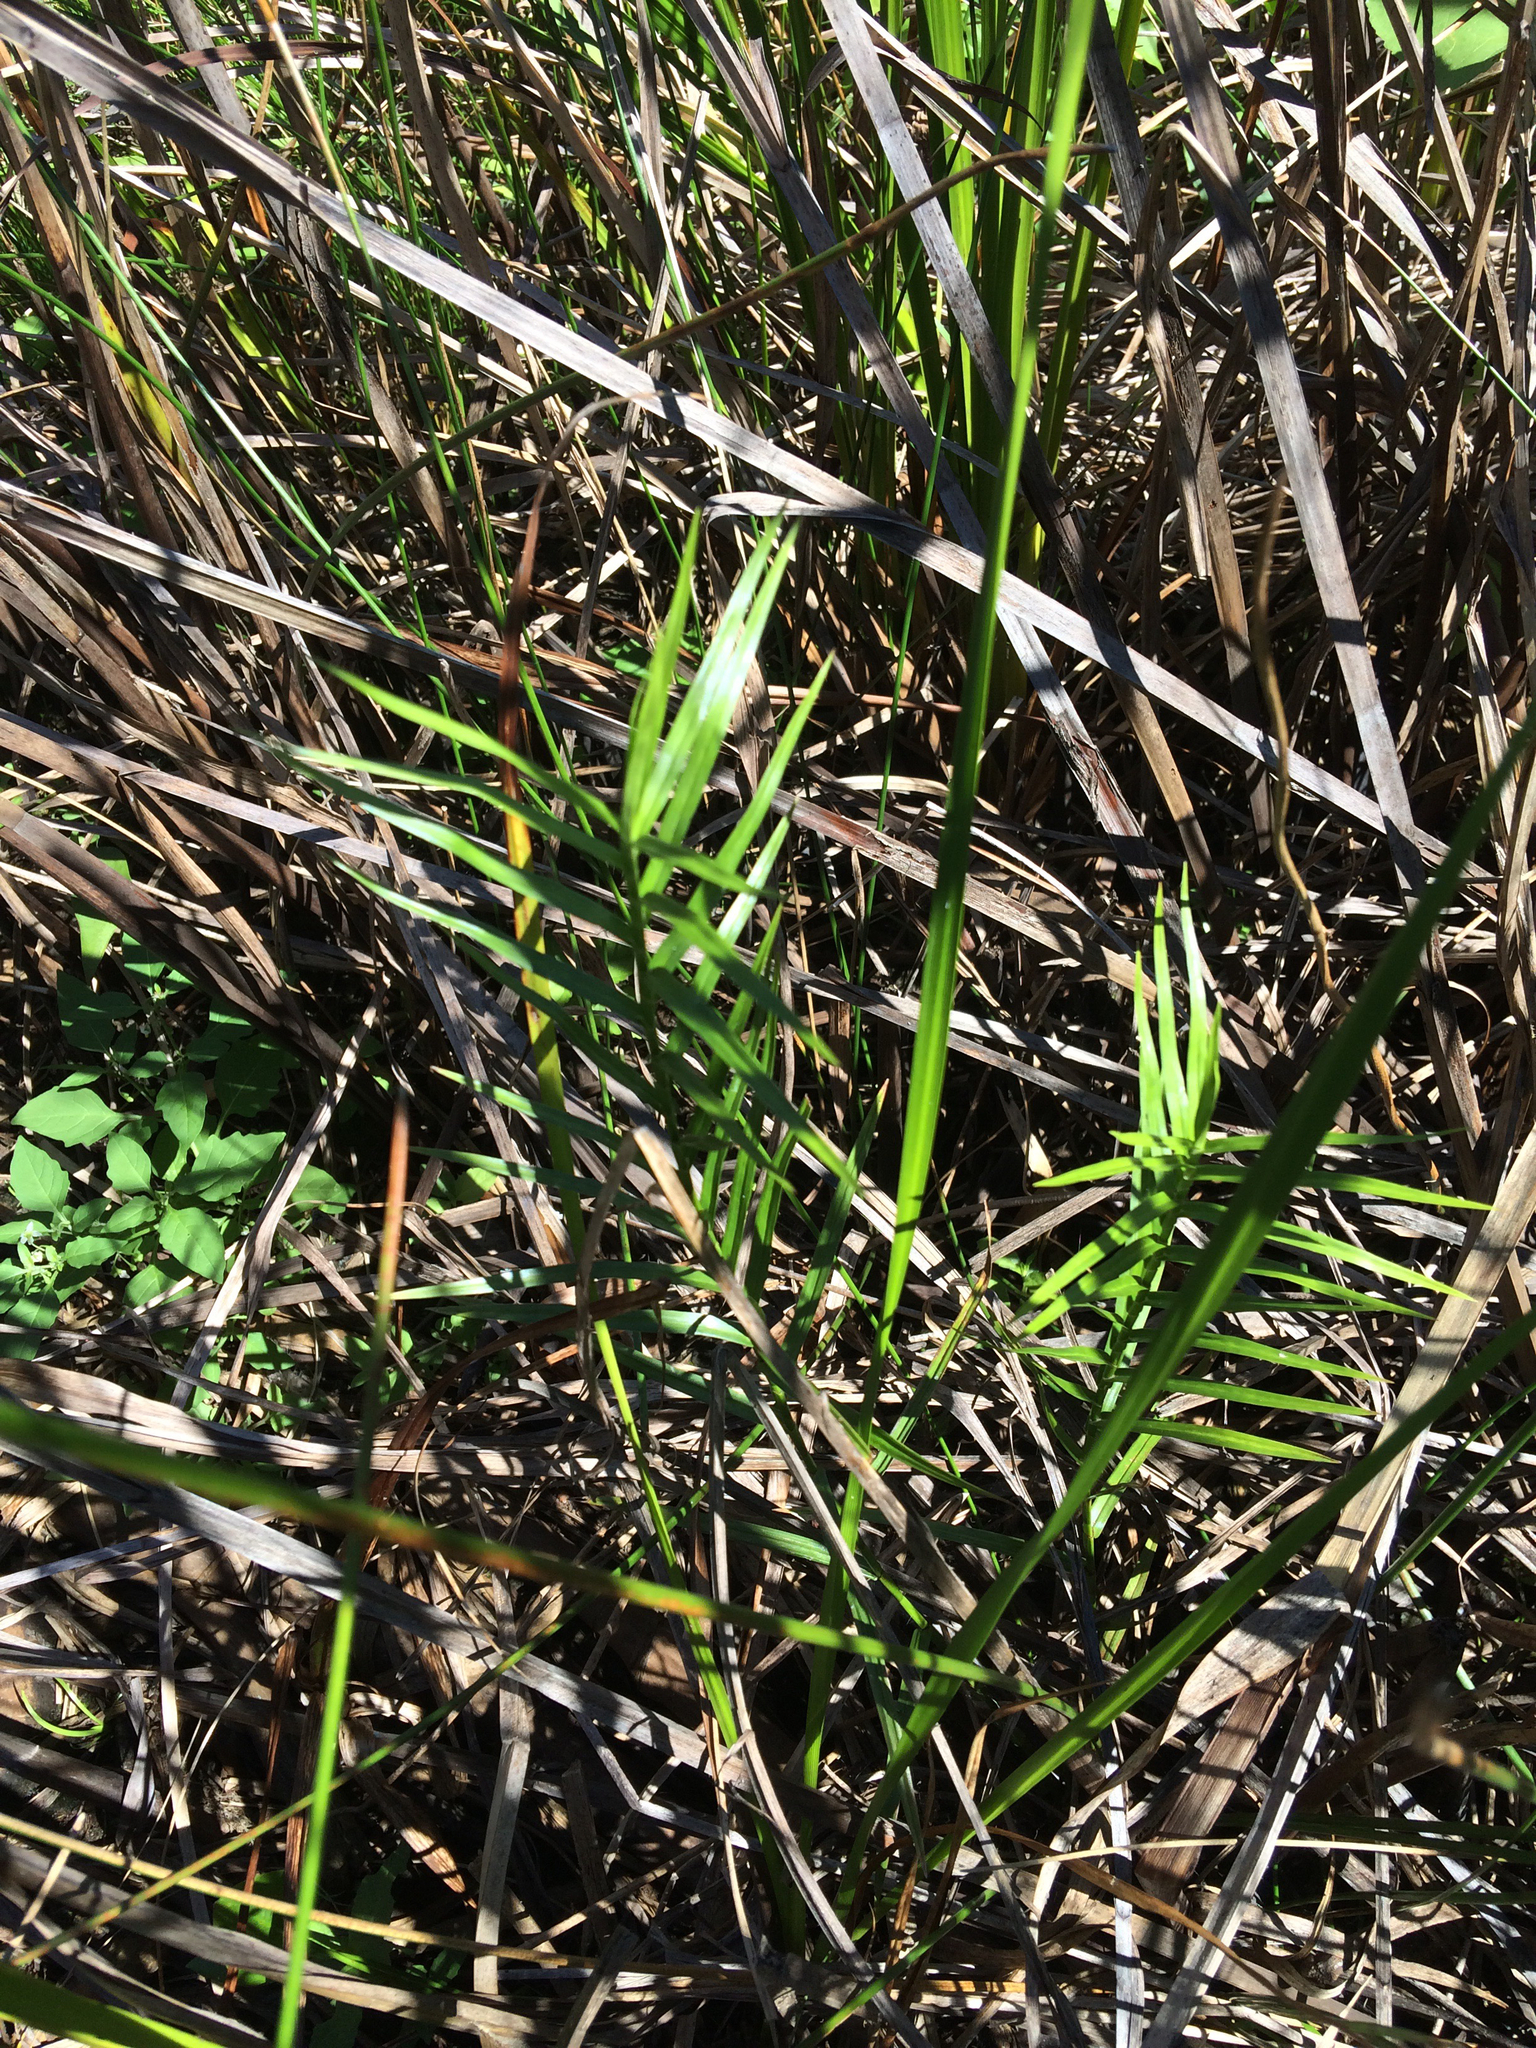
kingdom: Plantae
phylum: Tracheophyta
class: Liliopsida
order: Poales
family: Cyperaceae
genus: Dulichium
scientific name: Dulichium arundinaceum
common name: Three-way sedge
